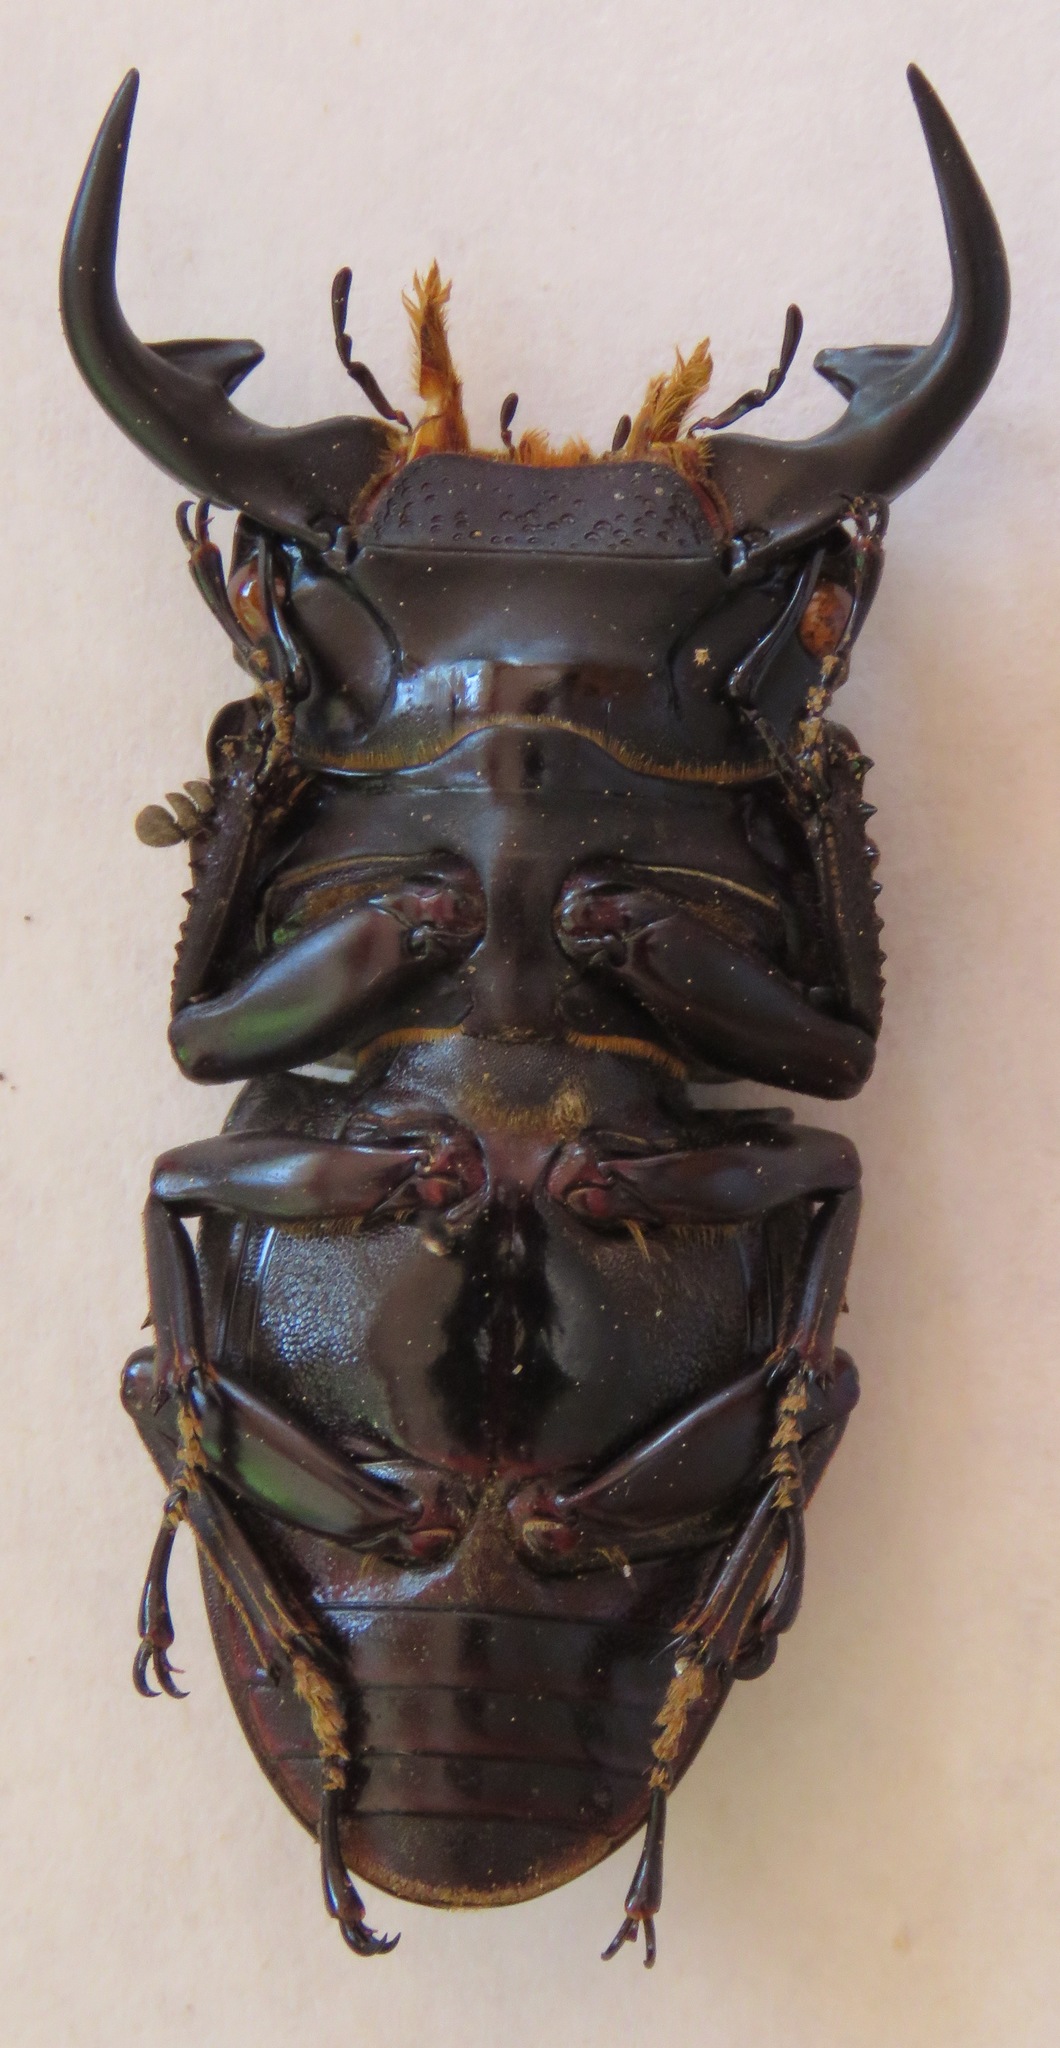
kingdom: Animalia
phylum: Arthropoda
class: Insecta
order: Coleoptera
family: Lucanidae
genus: Dorcus
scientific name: Dorcus curvidens
